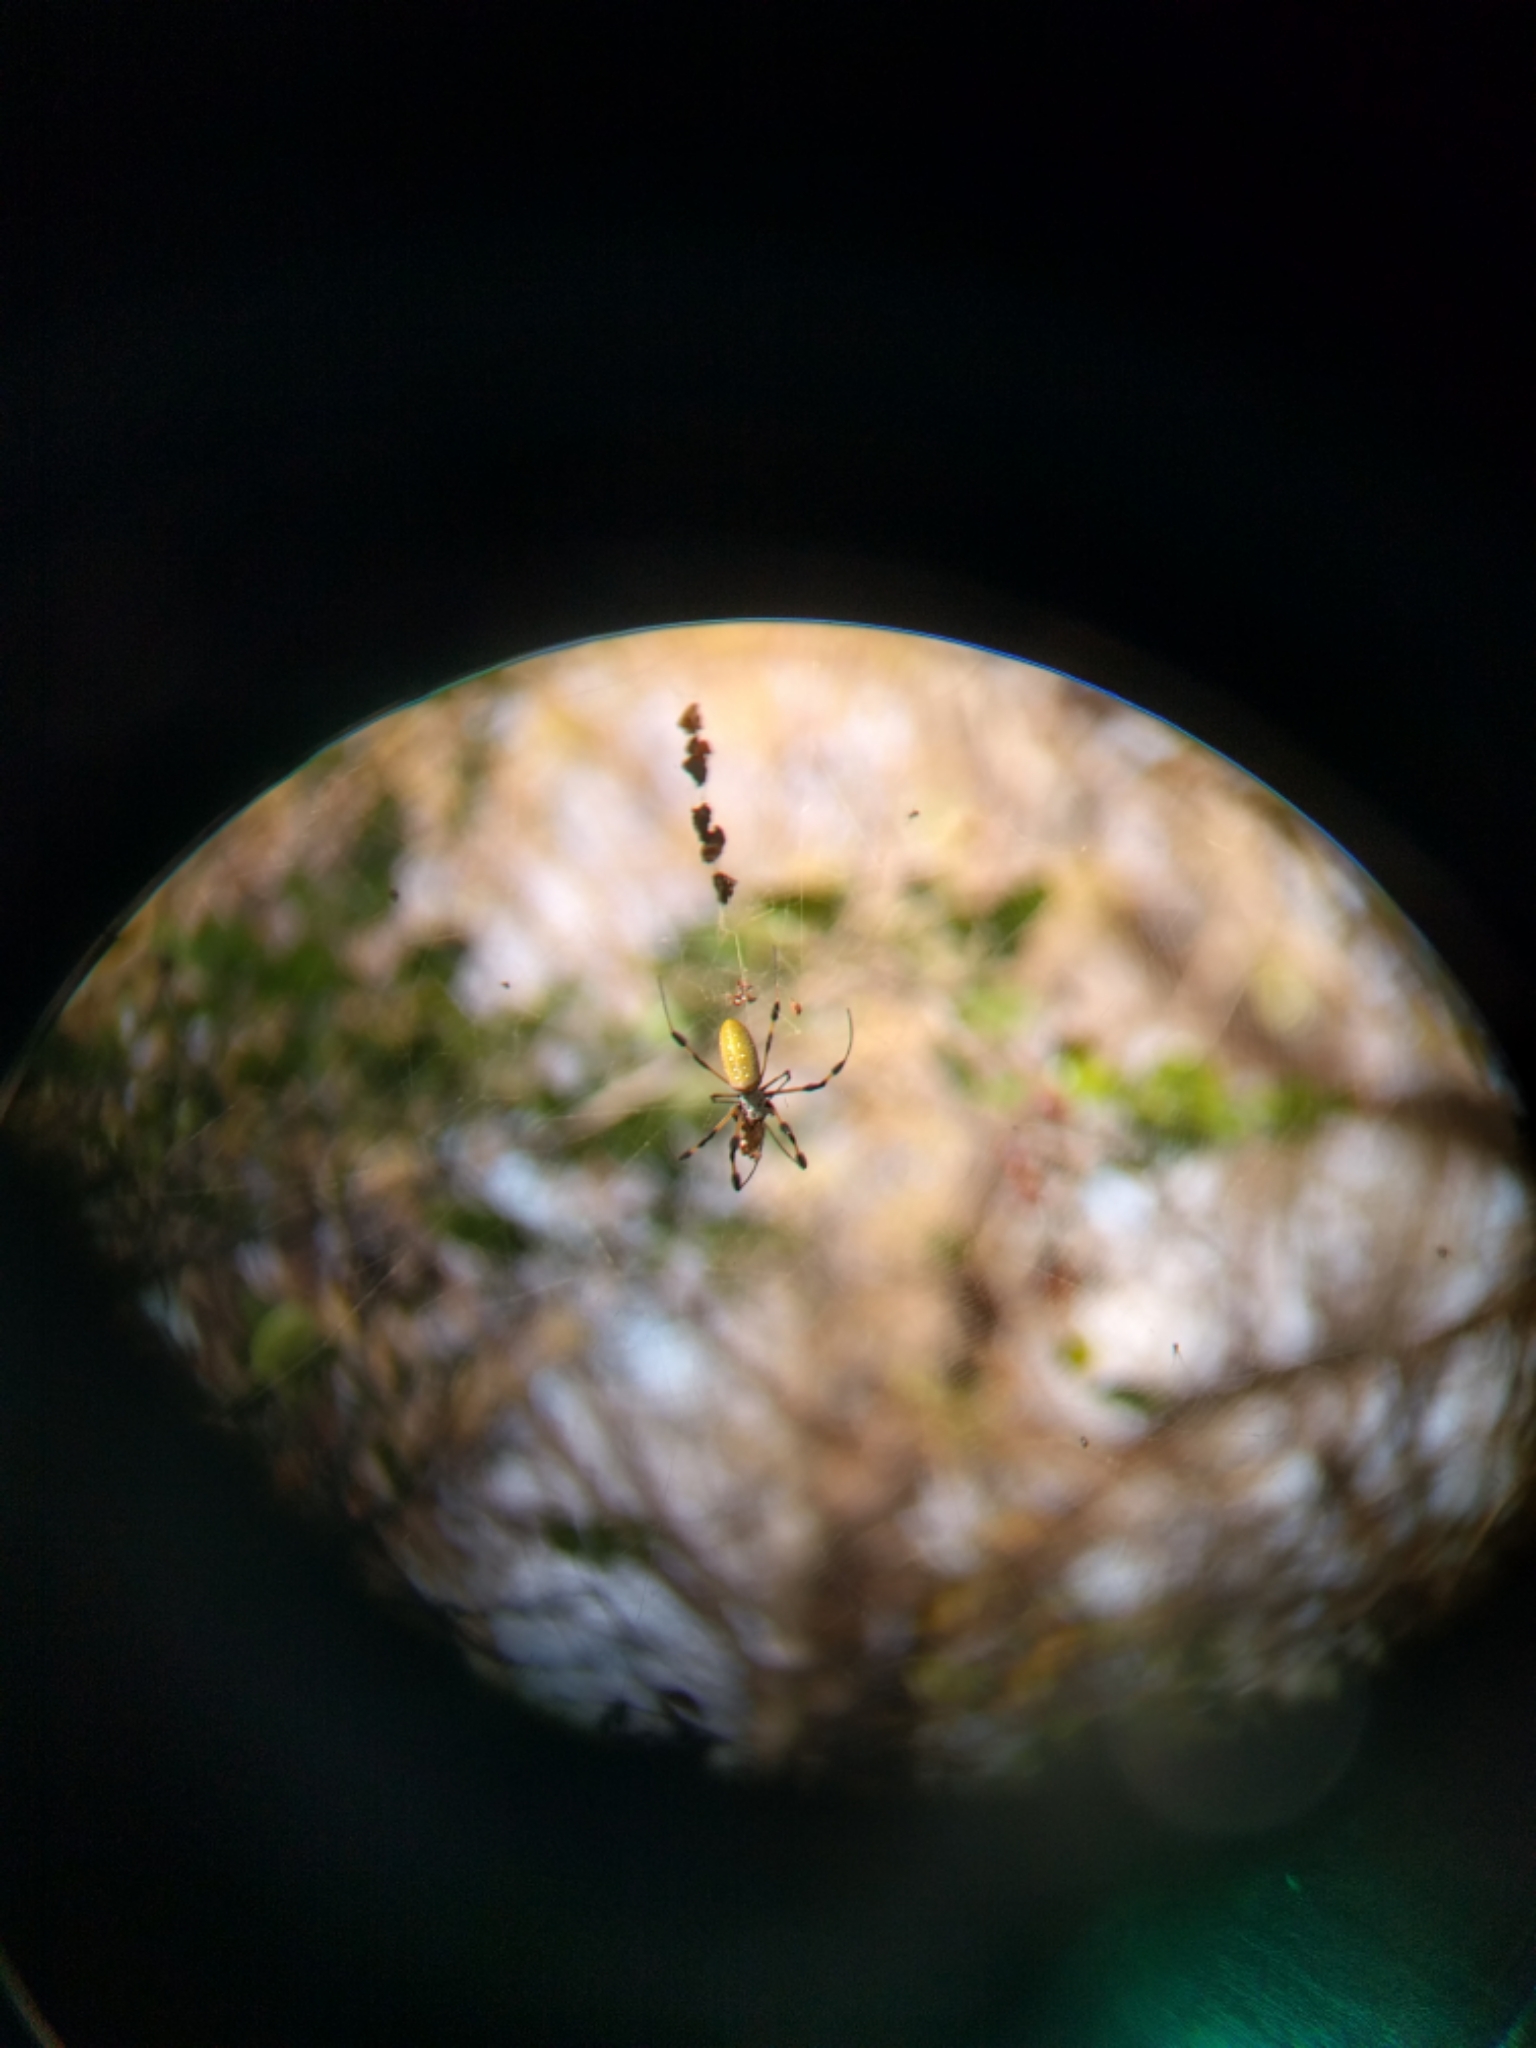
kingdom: Animalia
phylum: Arthropoda
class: Arachnida
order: Araneae
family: Araneidae
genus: Trichonephila
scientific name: Trichonephila clavipes
